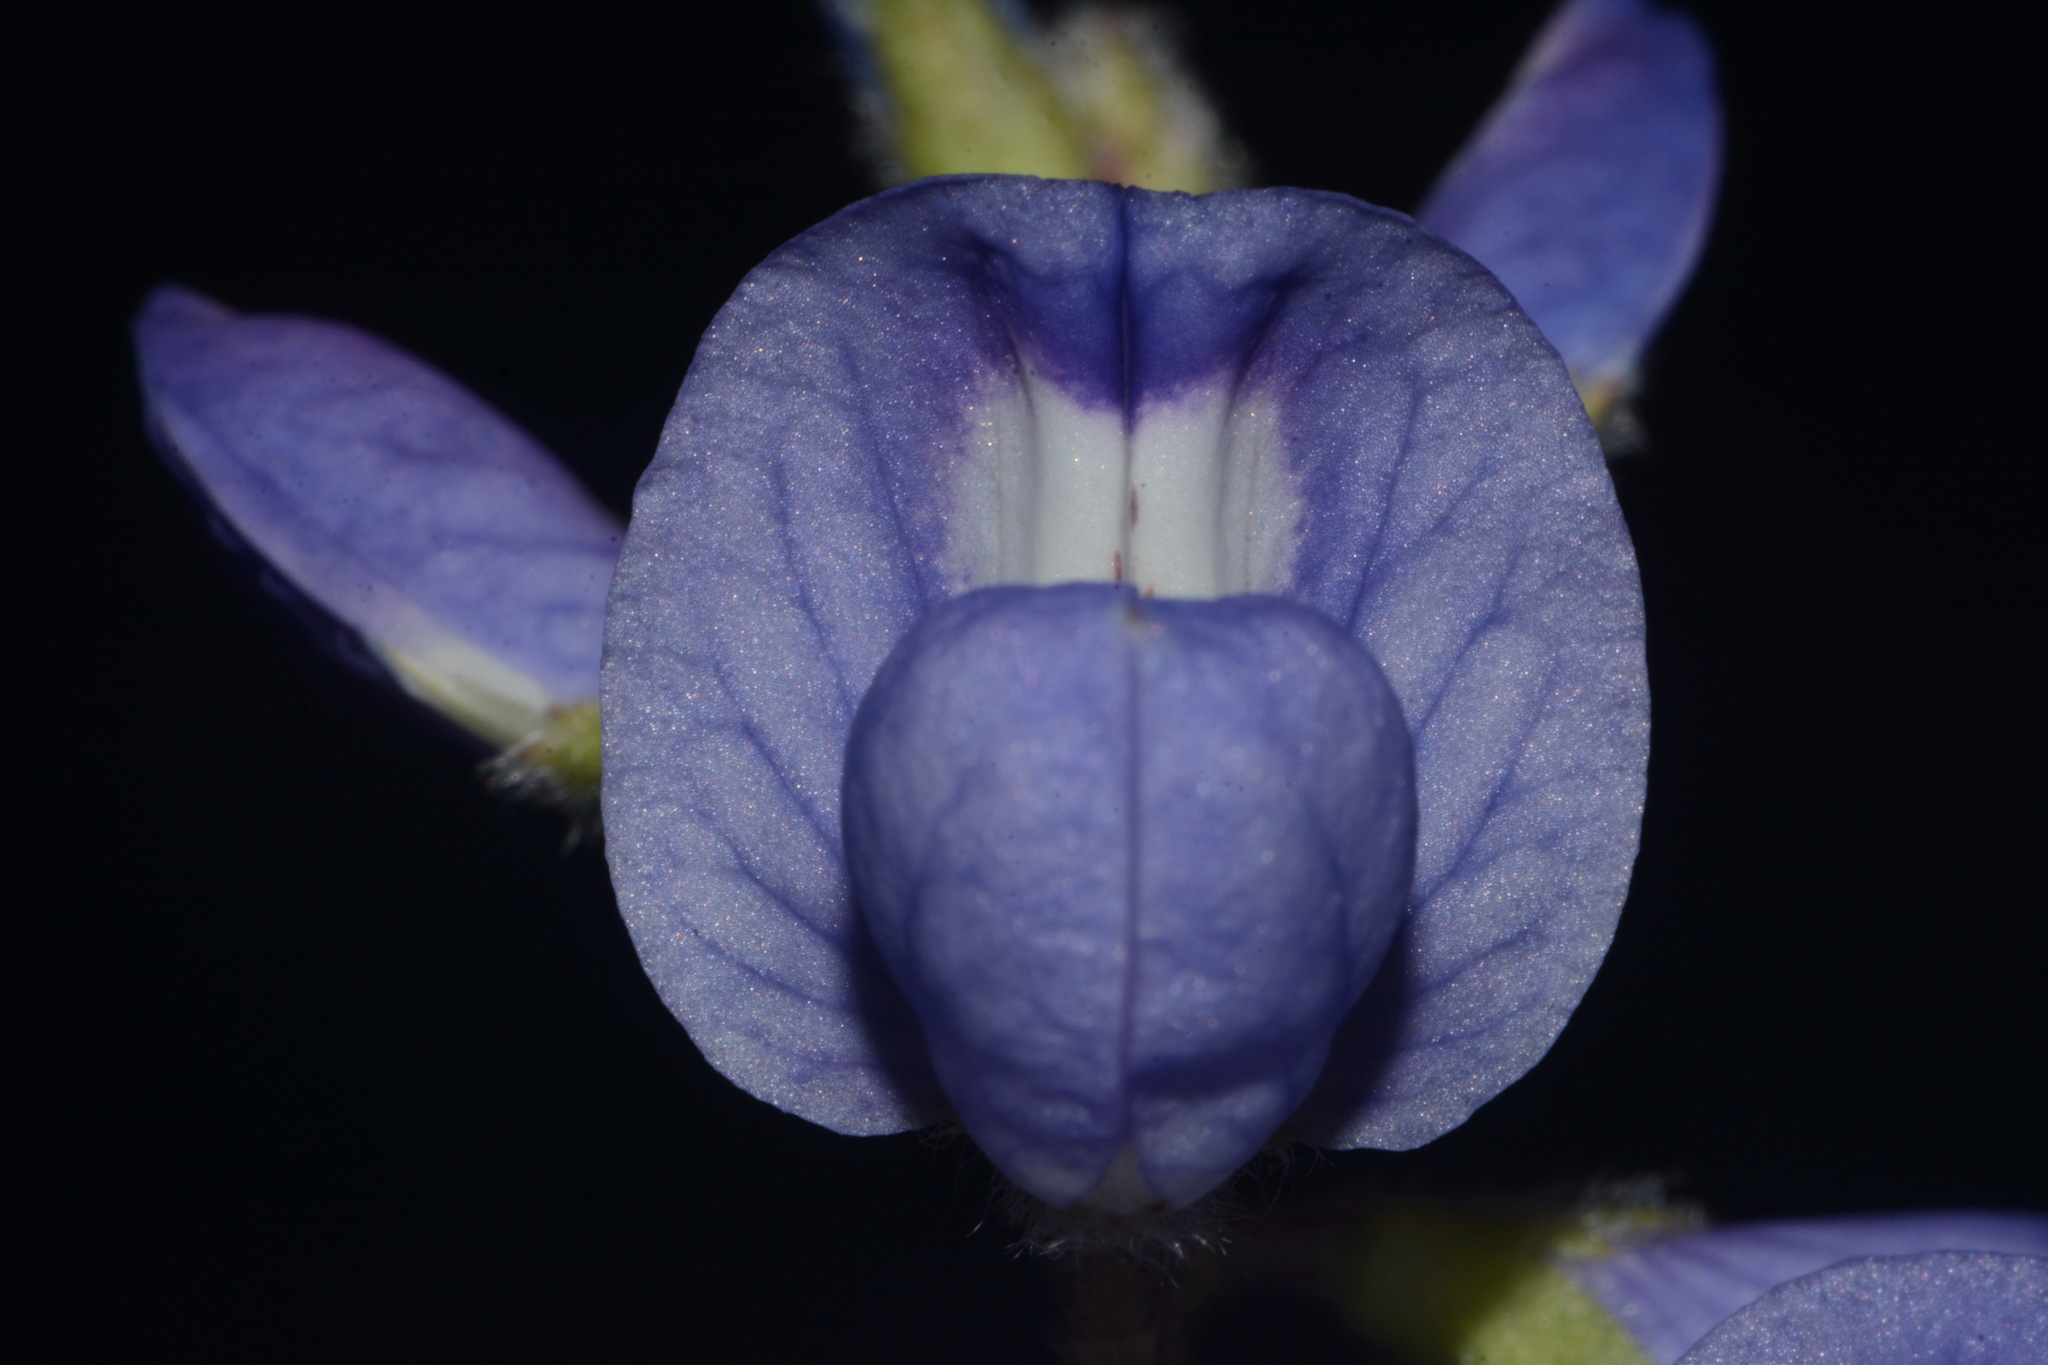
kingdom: Plantae
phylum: Tracheophyta
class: Magnoliopsida
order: Fabales
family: Fabaceae
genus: Lupinus
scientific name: Lupinus subcarnosus
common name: Texas bluebonnet
